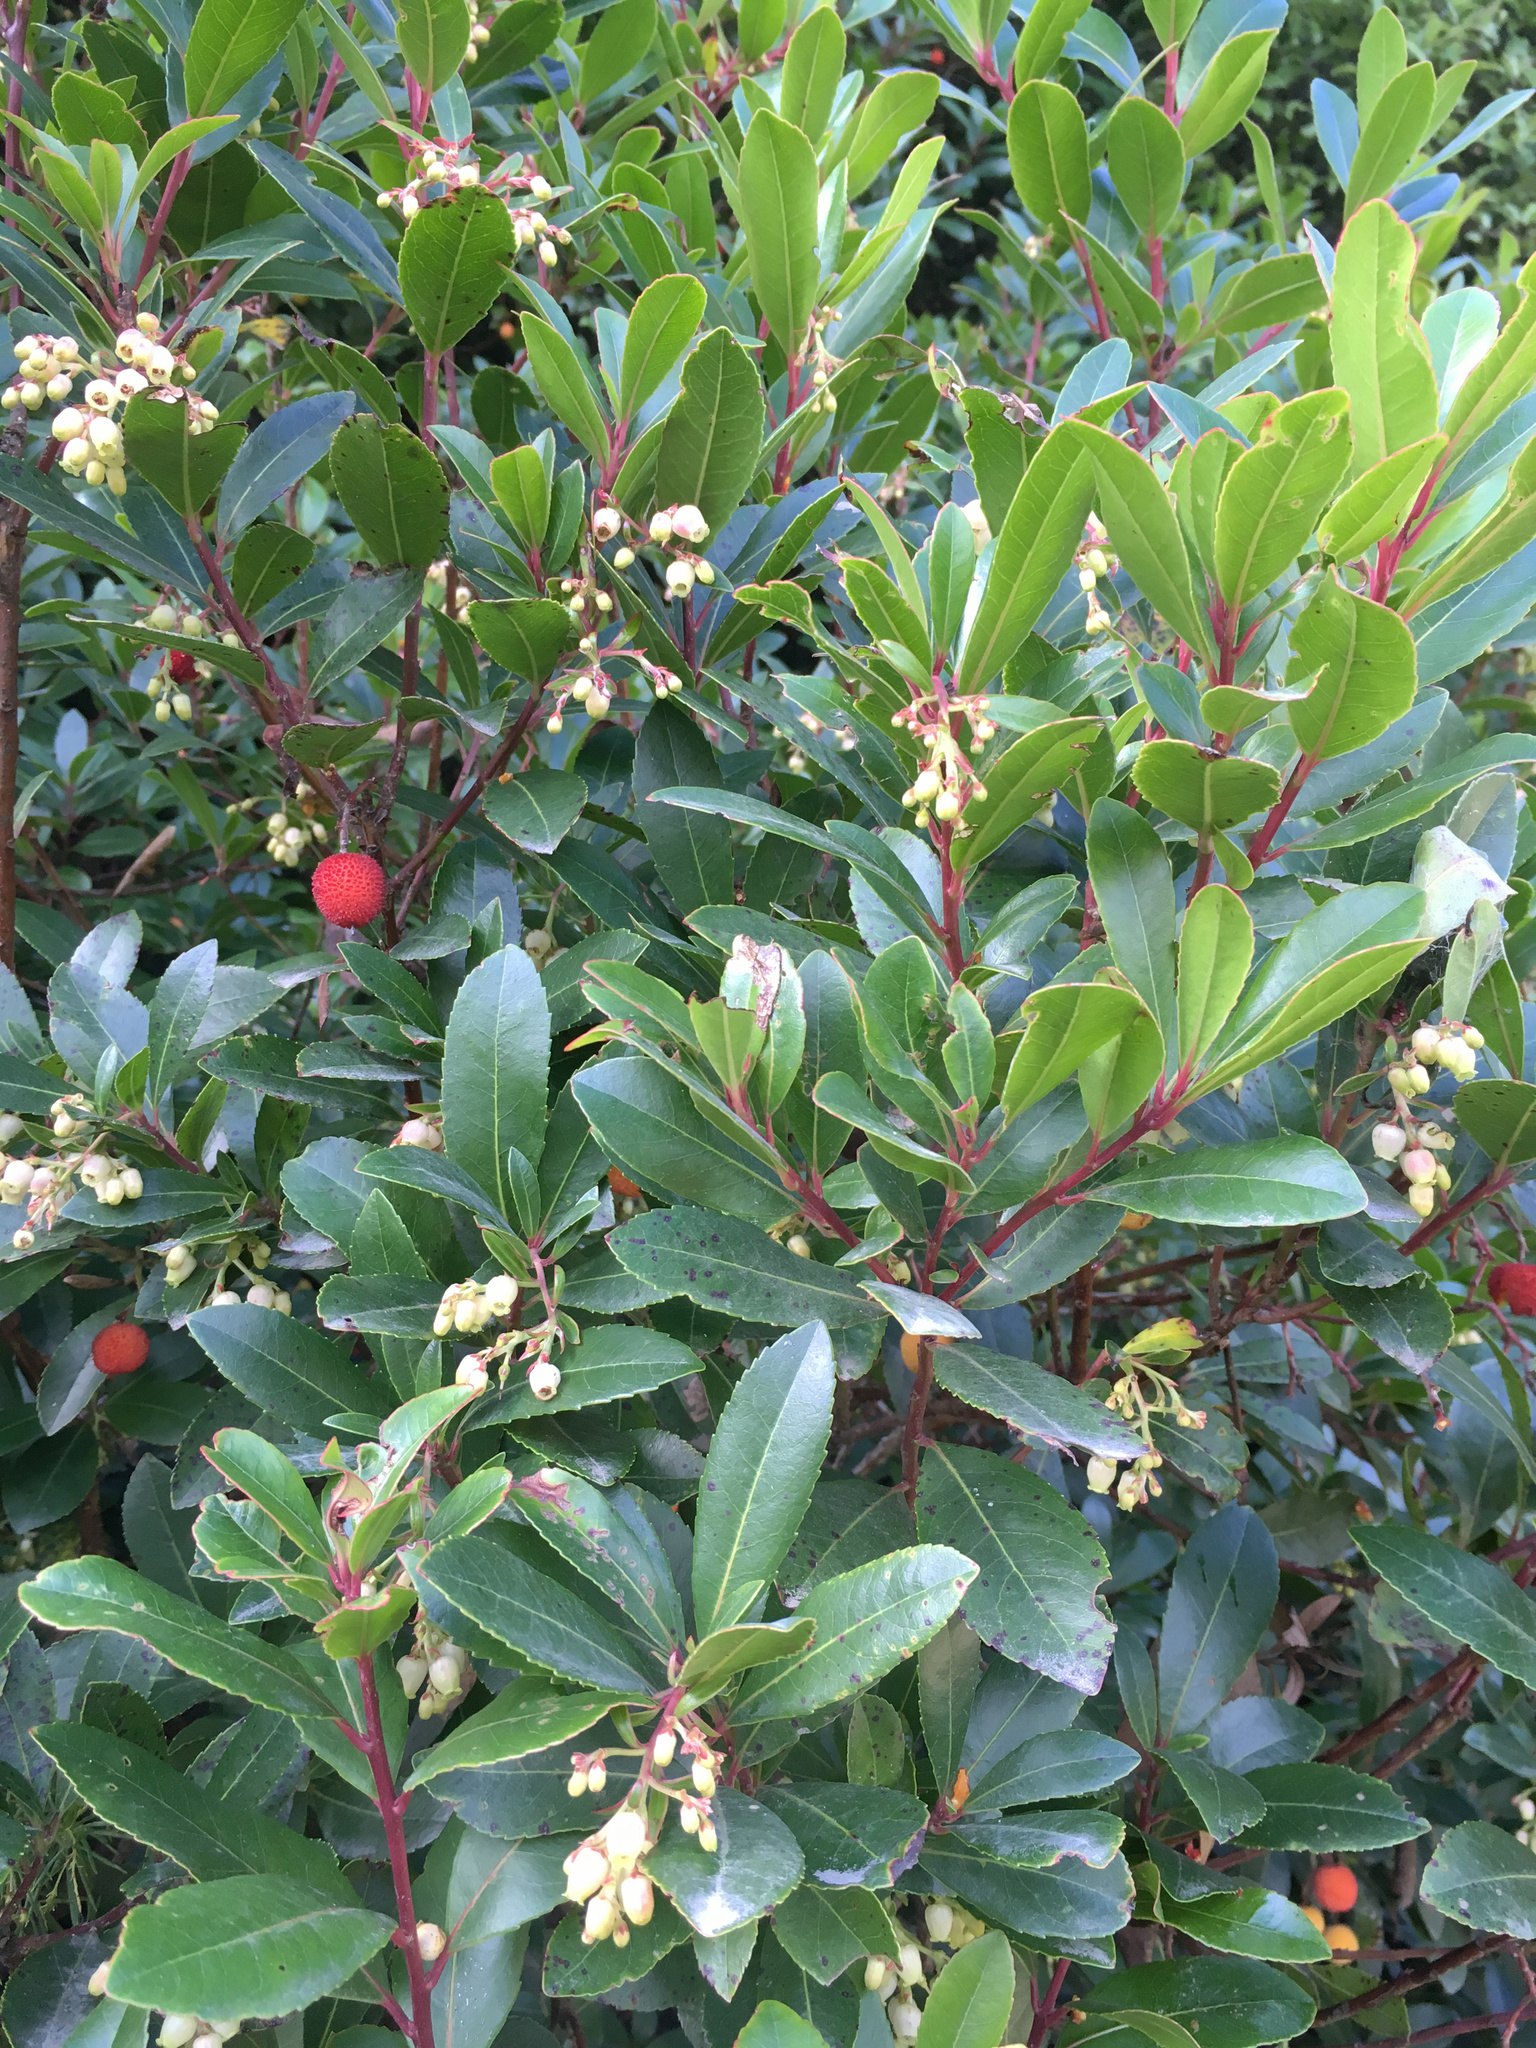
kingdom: Plantae
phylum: Tracheophyta
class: Magnoliopsida
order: Ericales
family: Ericaceae
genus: Arbutus
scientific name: Arbutus unedo
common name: Strawberry-tree
